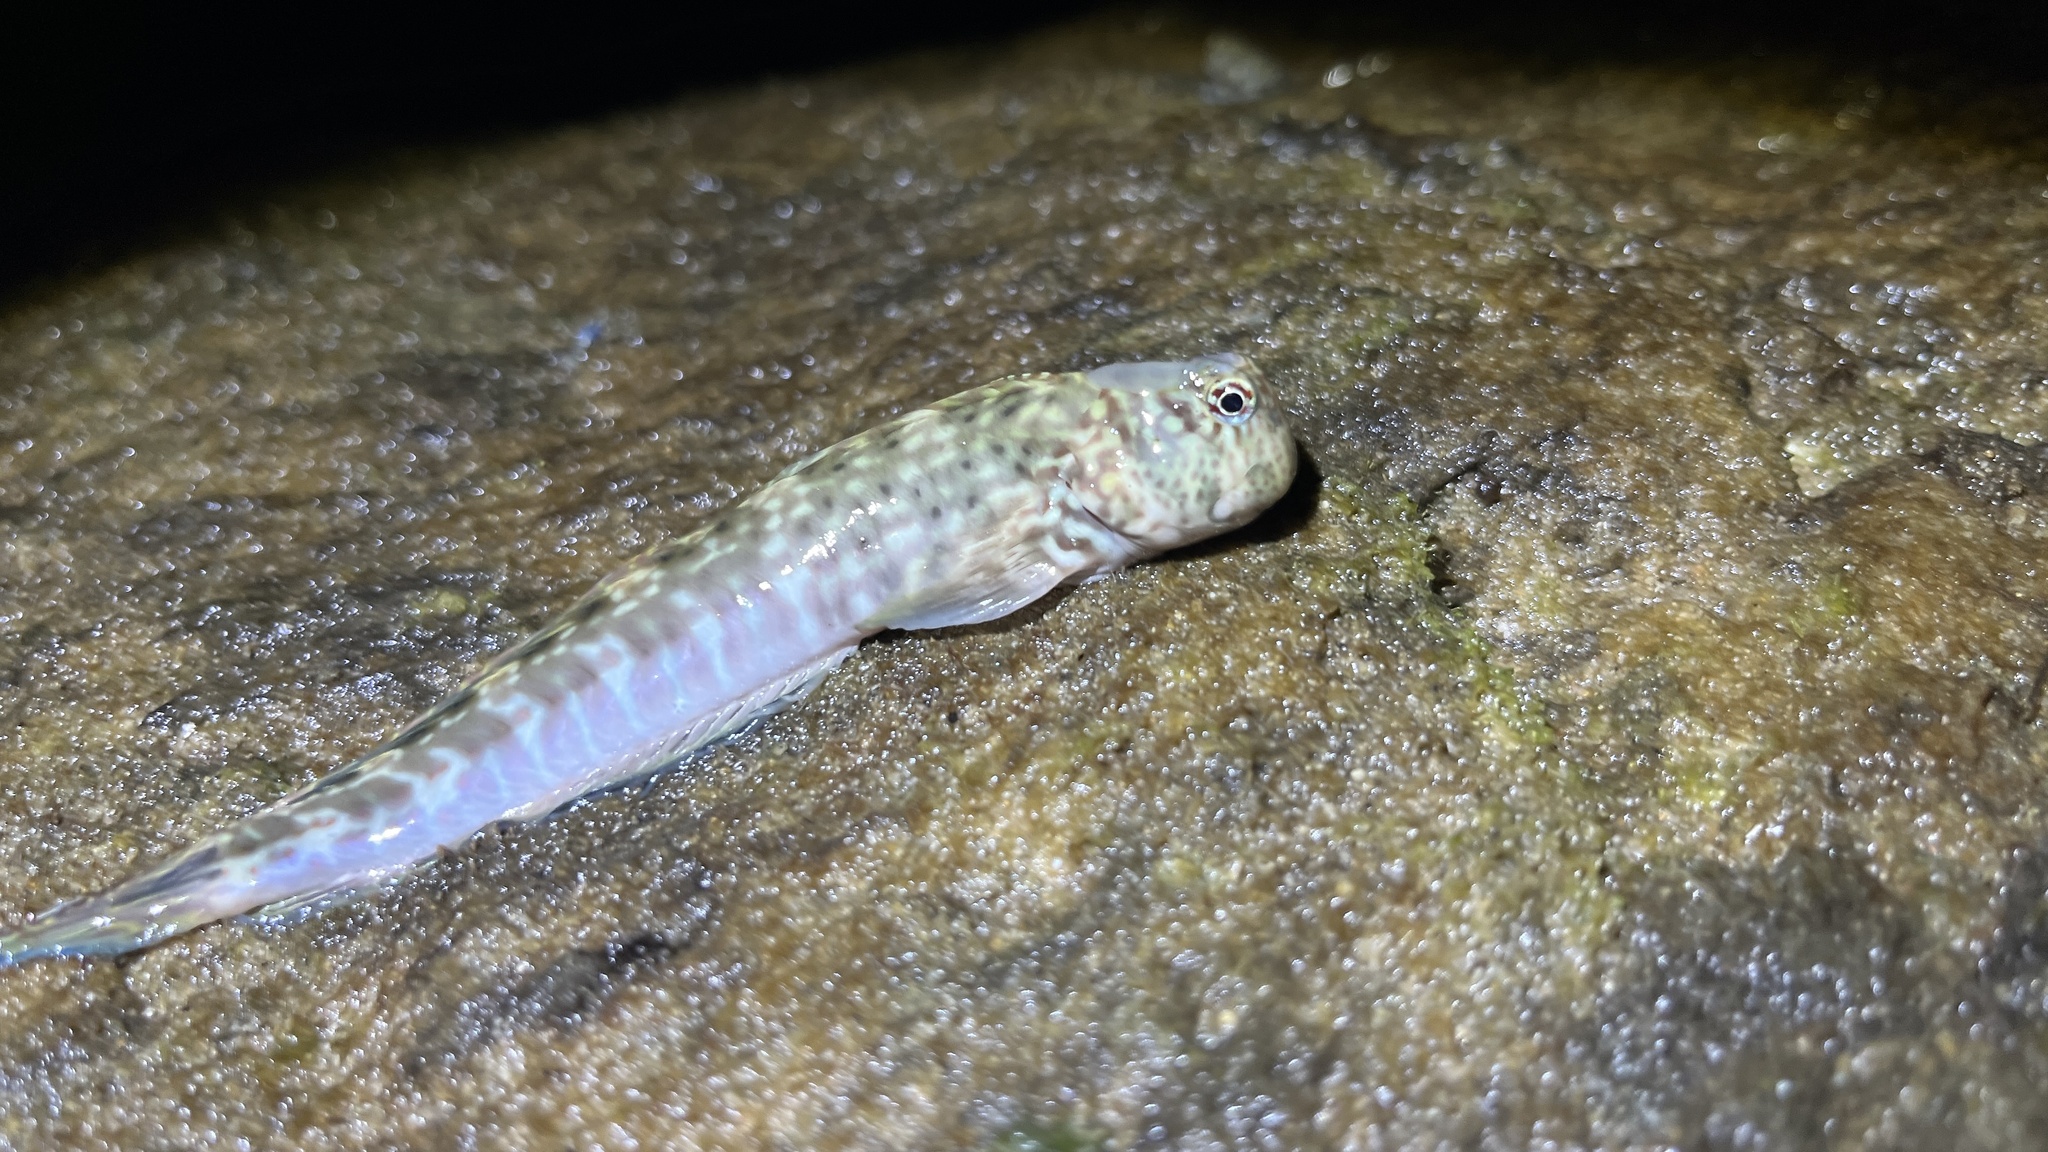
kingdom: Animalia
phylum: Chordata
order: Perciformes
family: Blenniidae
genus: Istiblennius
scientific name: Istiblennius dussumieri
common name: Dussumier's rockskipper
